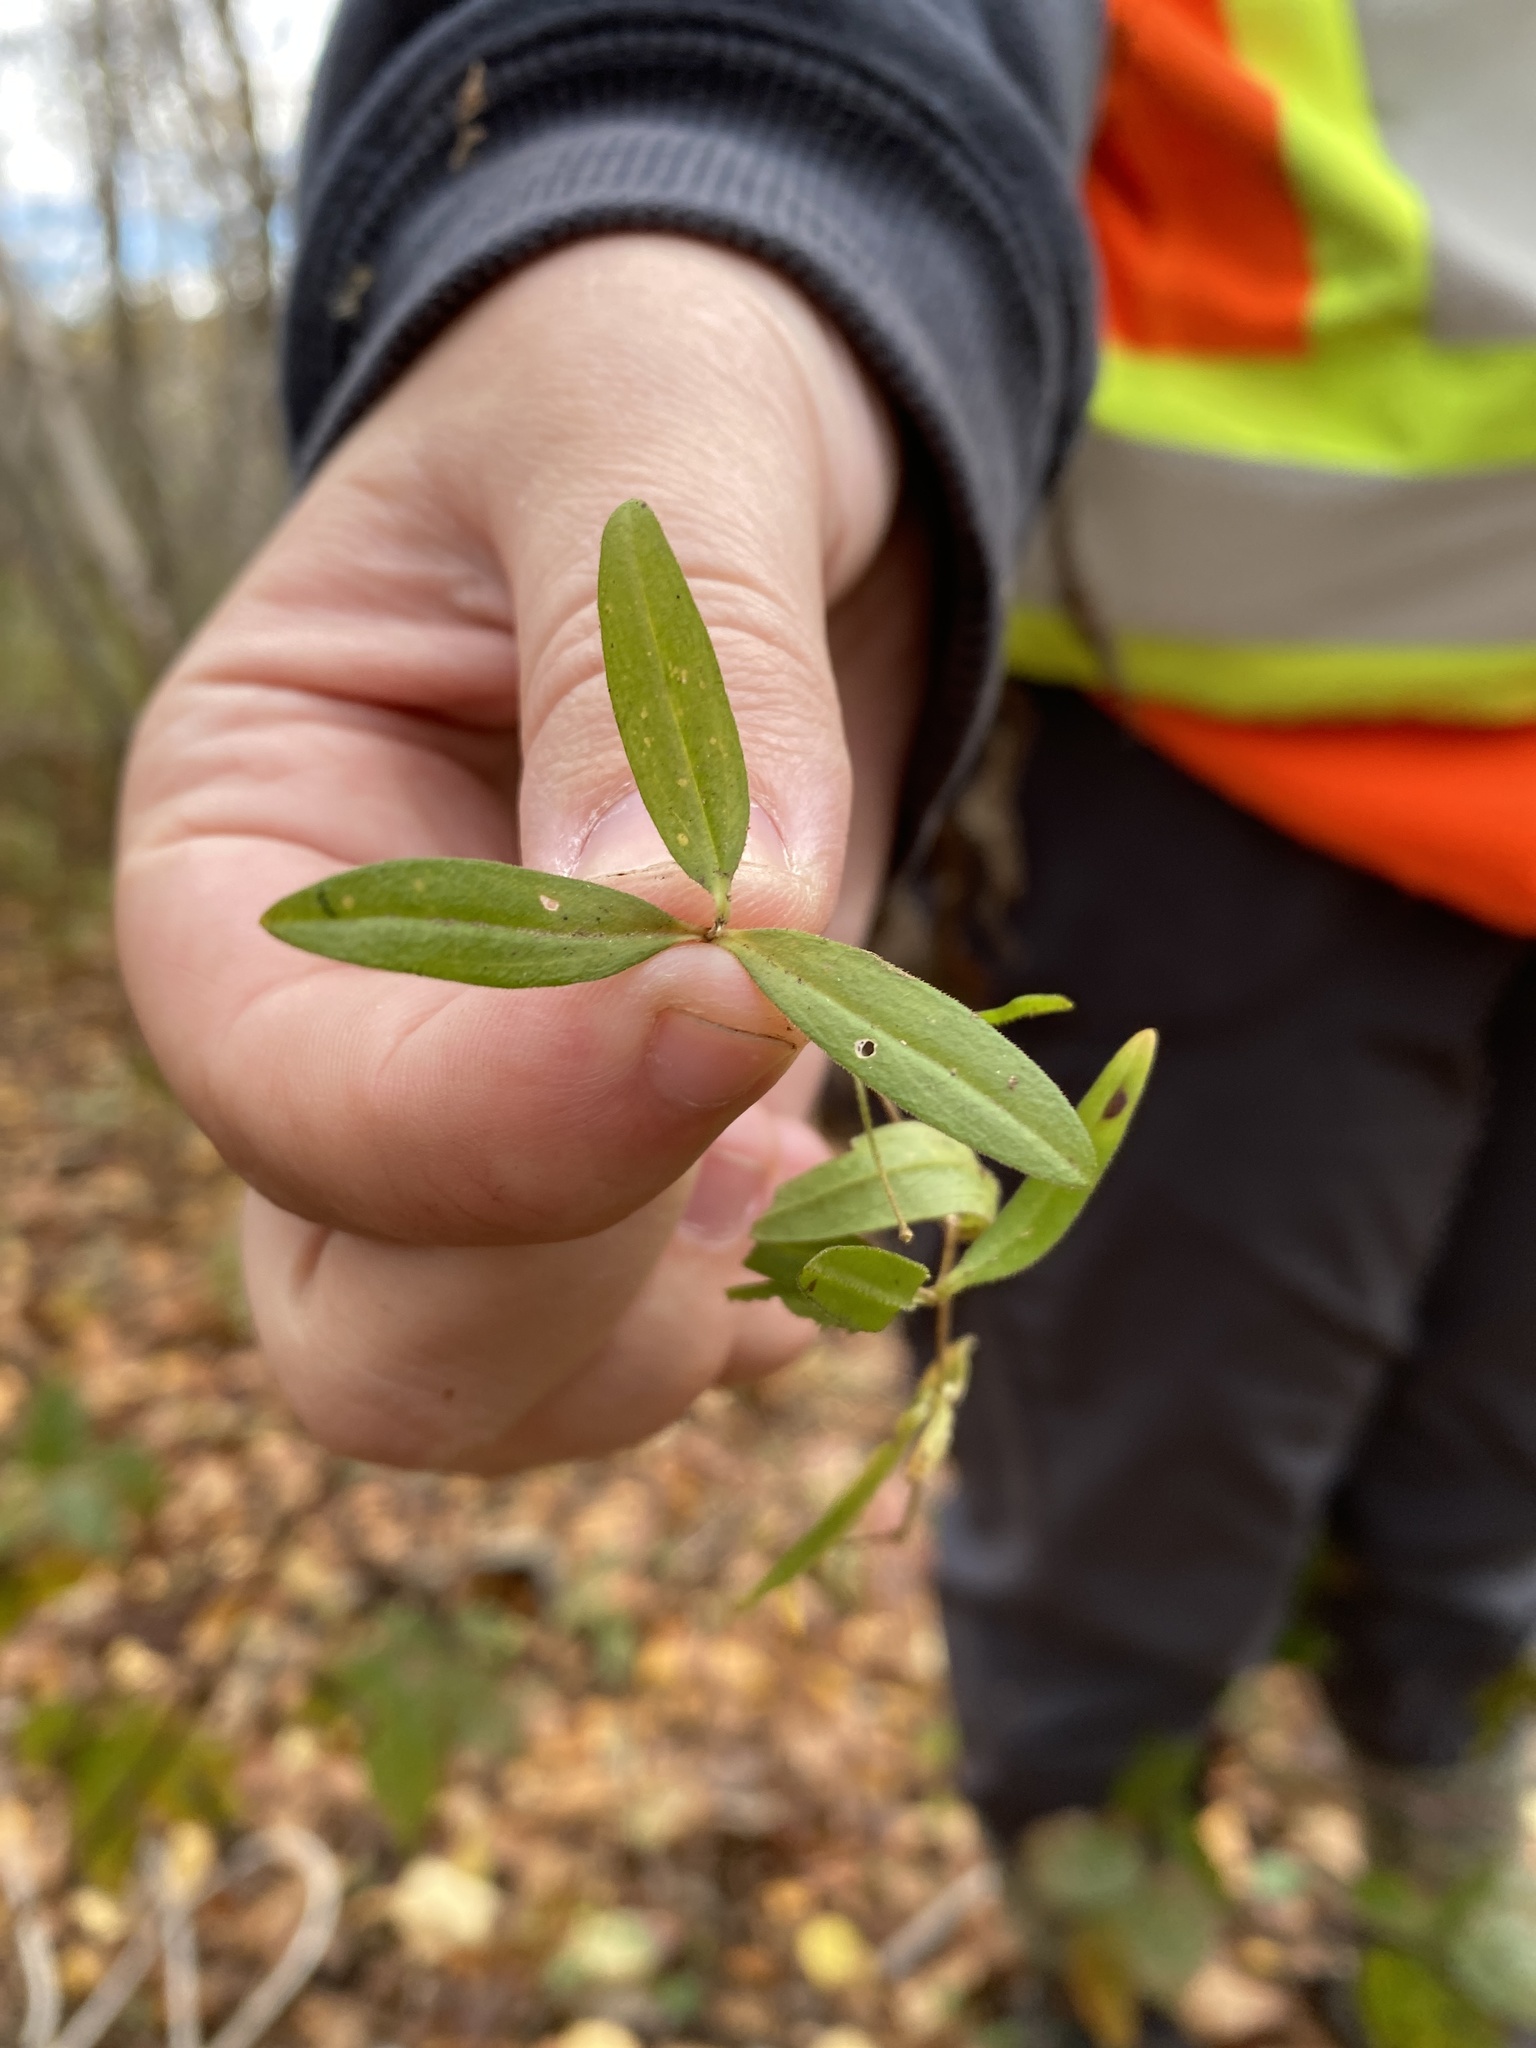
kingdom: Plantae
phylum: Tracheophyta
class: Magnoliopsida
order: Caryophyllales
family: Caryophyllaceae
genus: Moehringia
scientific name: Moehringia lateriflora
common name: Blunt-leaved sandwort
